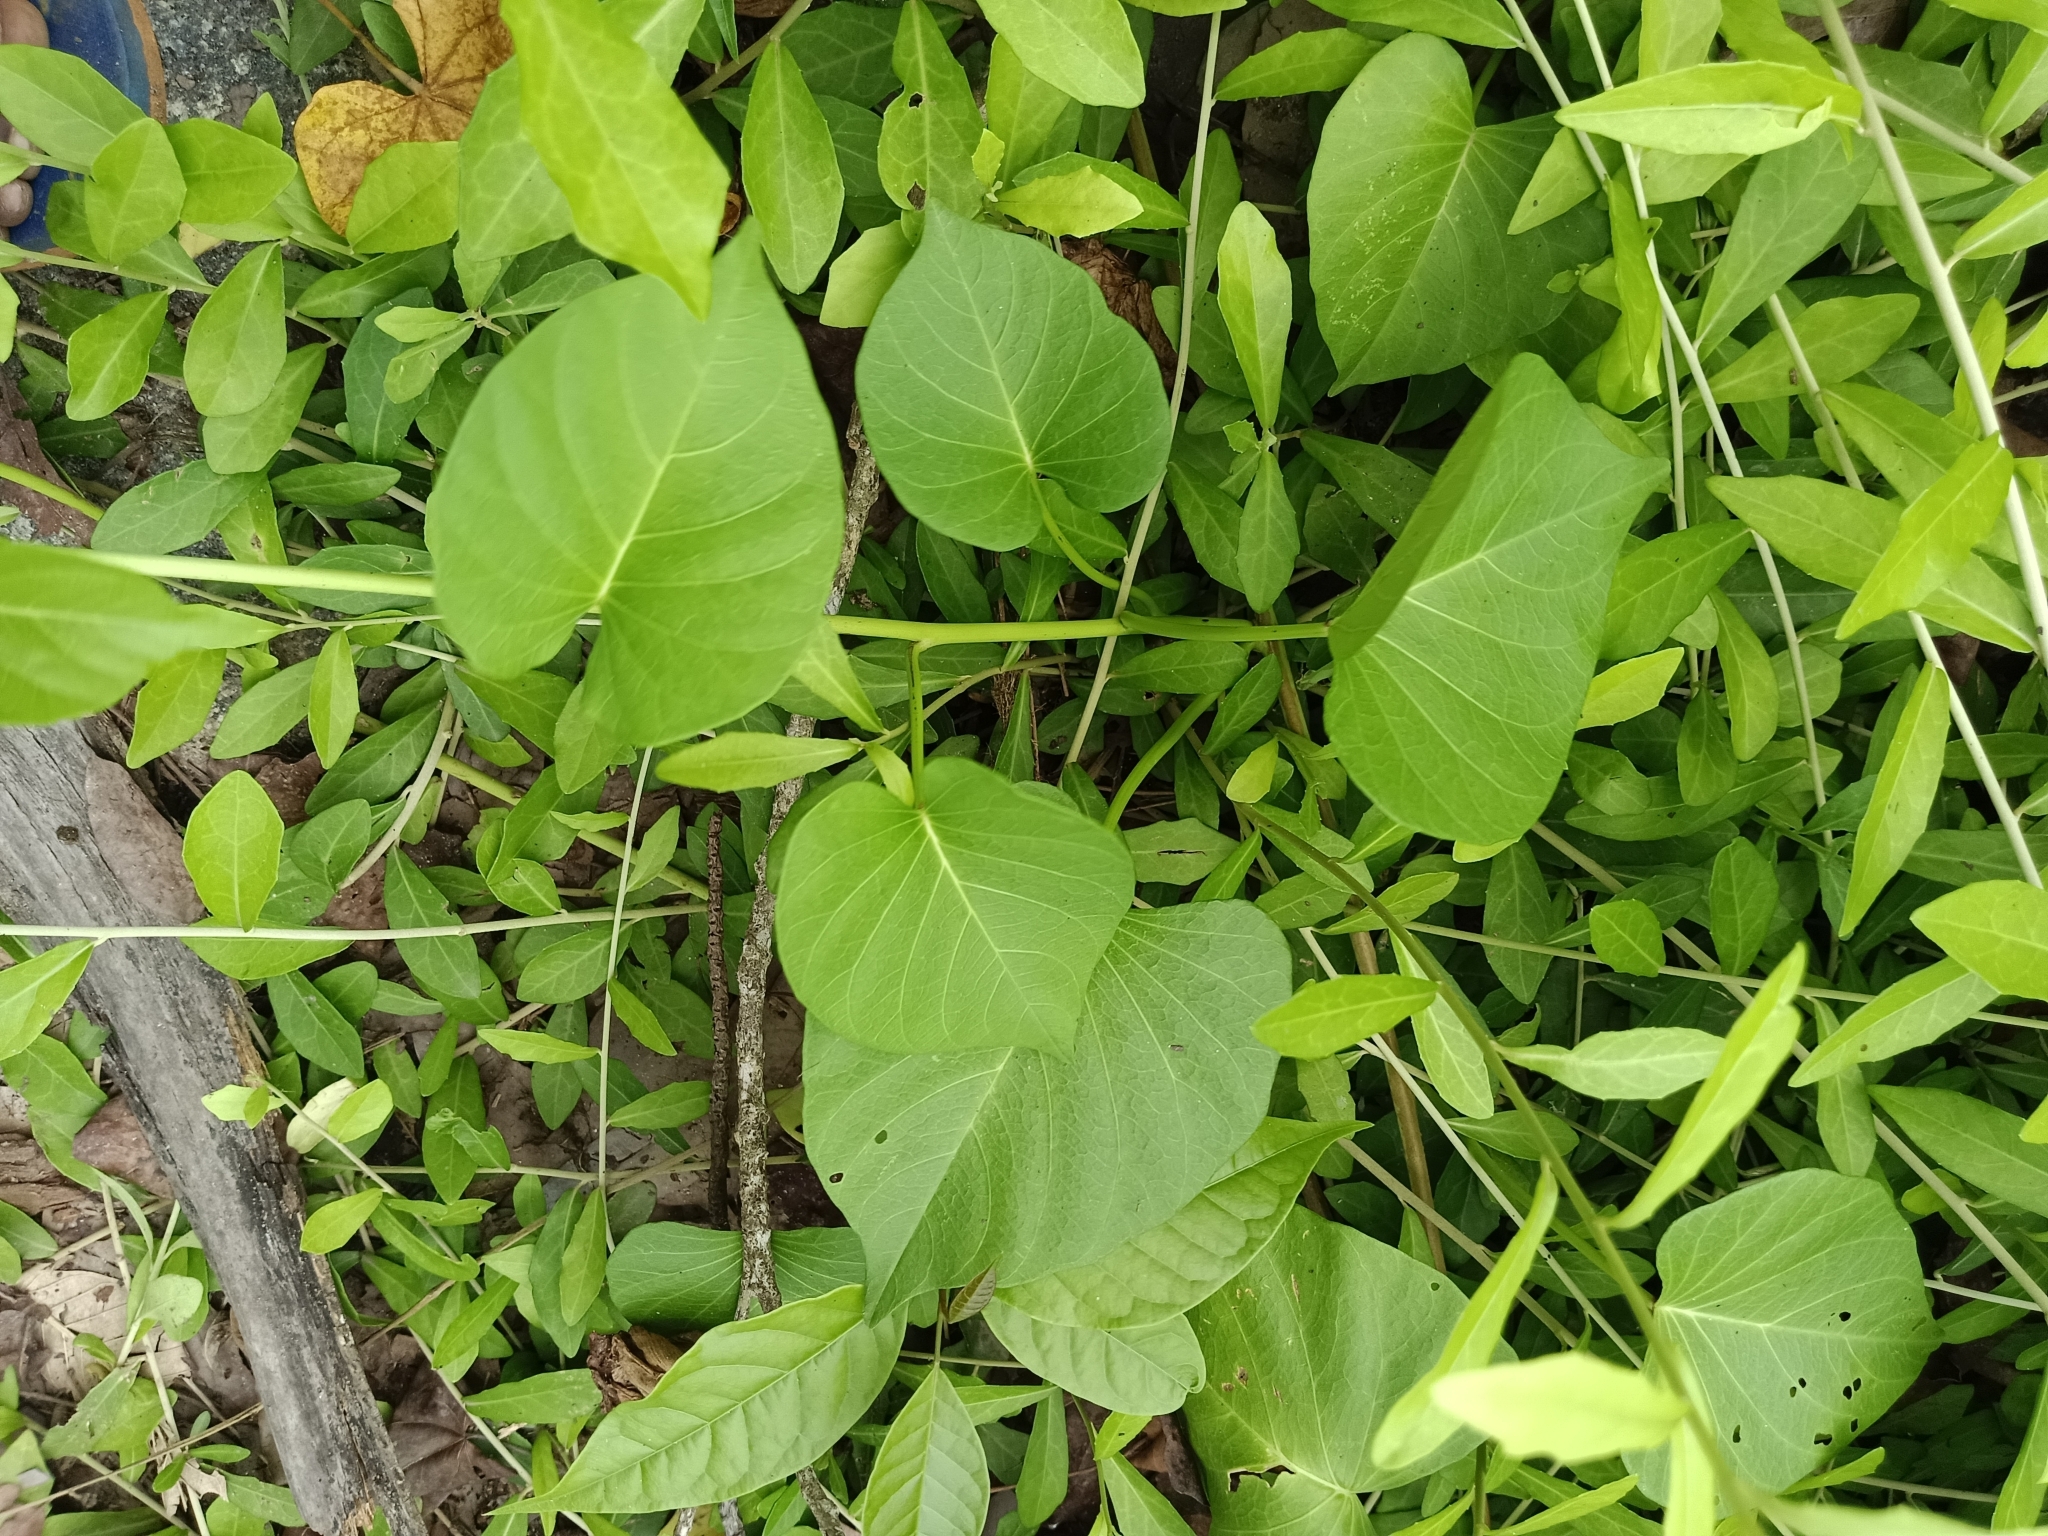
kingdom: Plantae
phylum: Tracheophyta
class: Magnoliopsida
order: Solanales
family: Convolvulaceae
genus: Ipomoea
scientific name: Ipomoea violacea
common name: Beach moonflower
